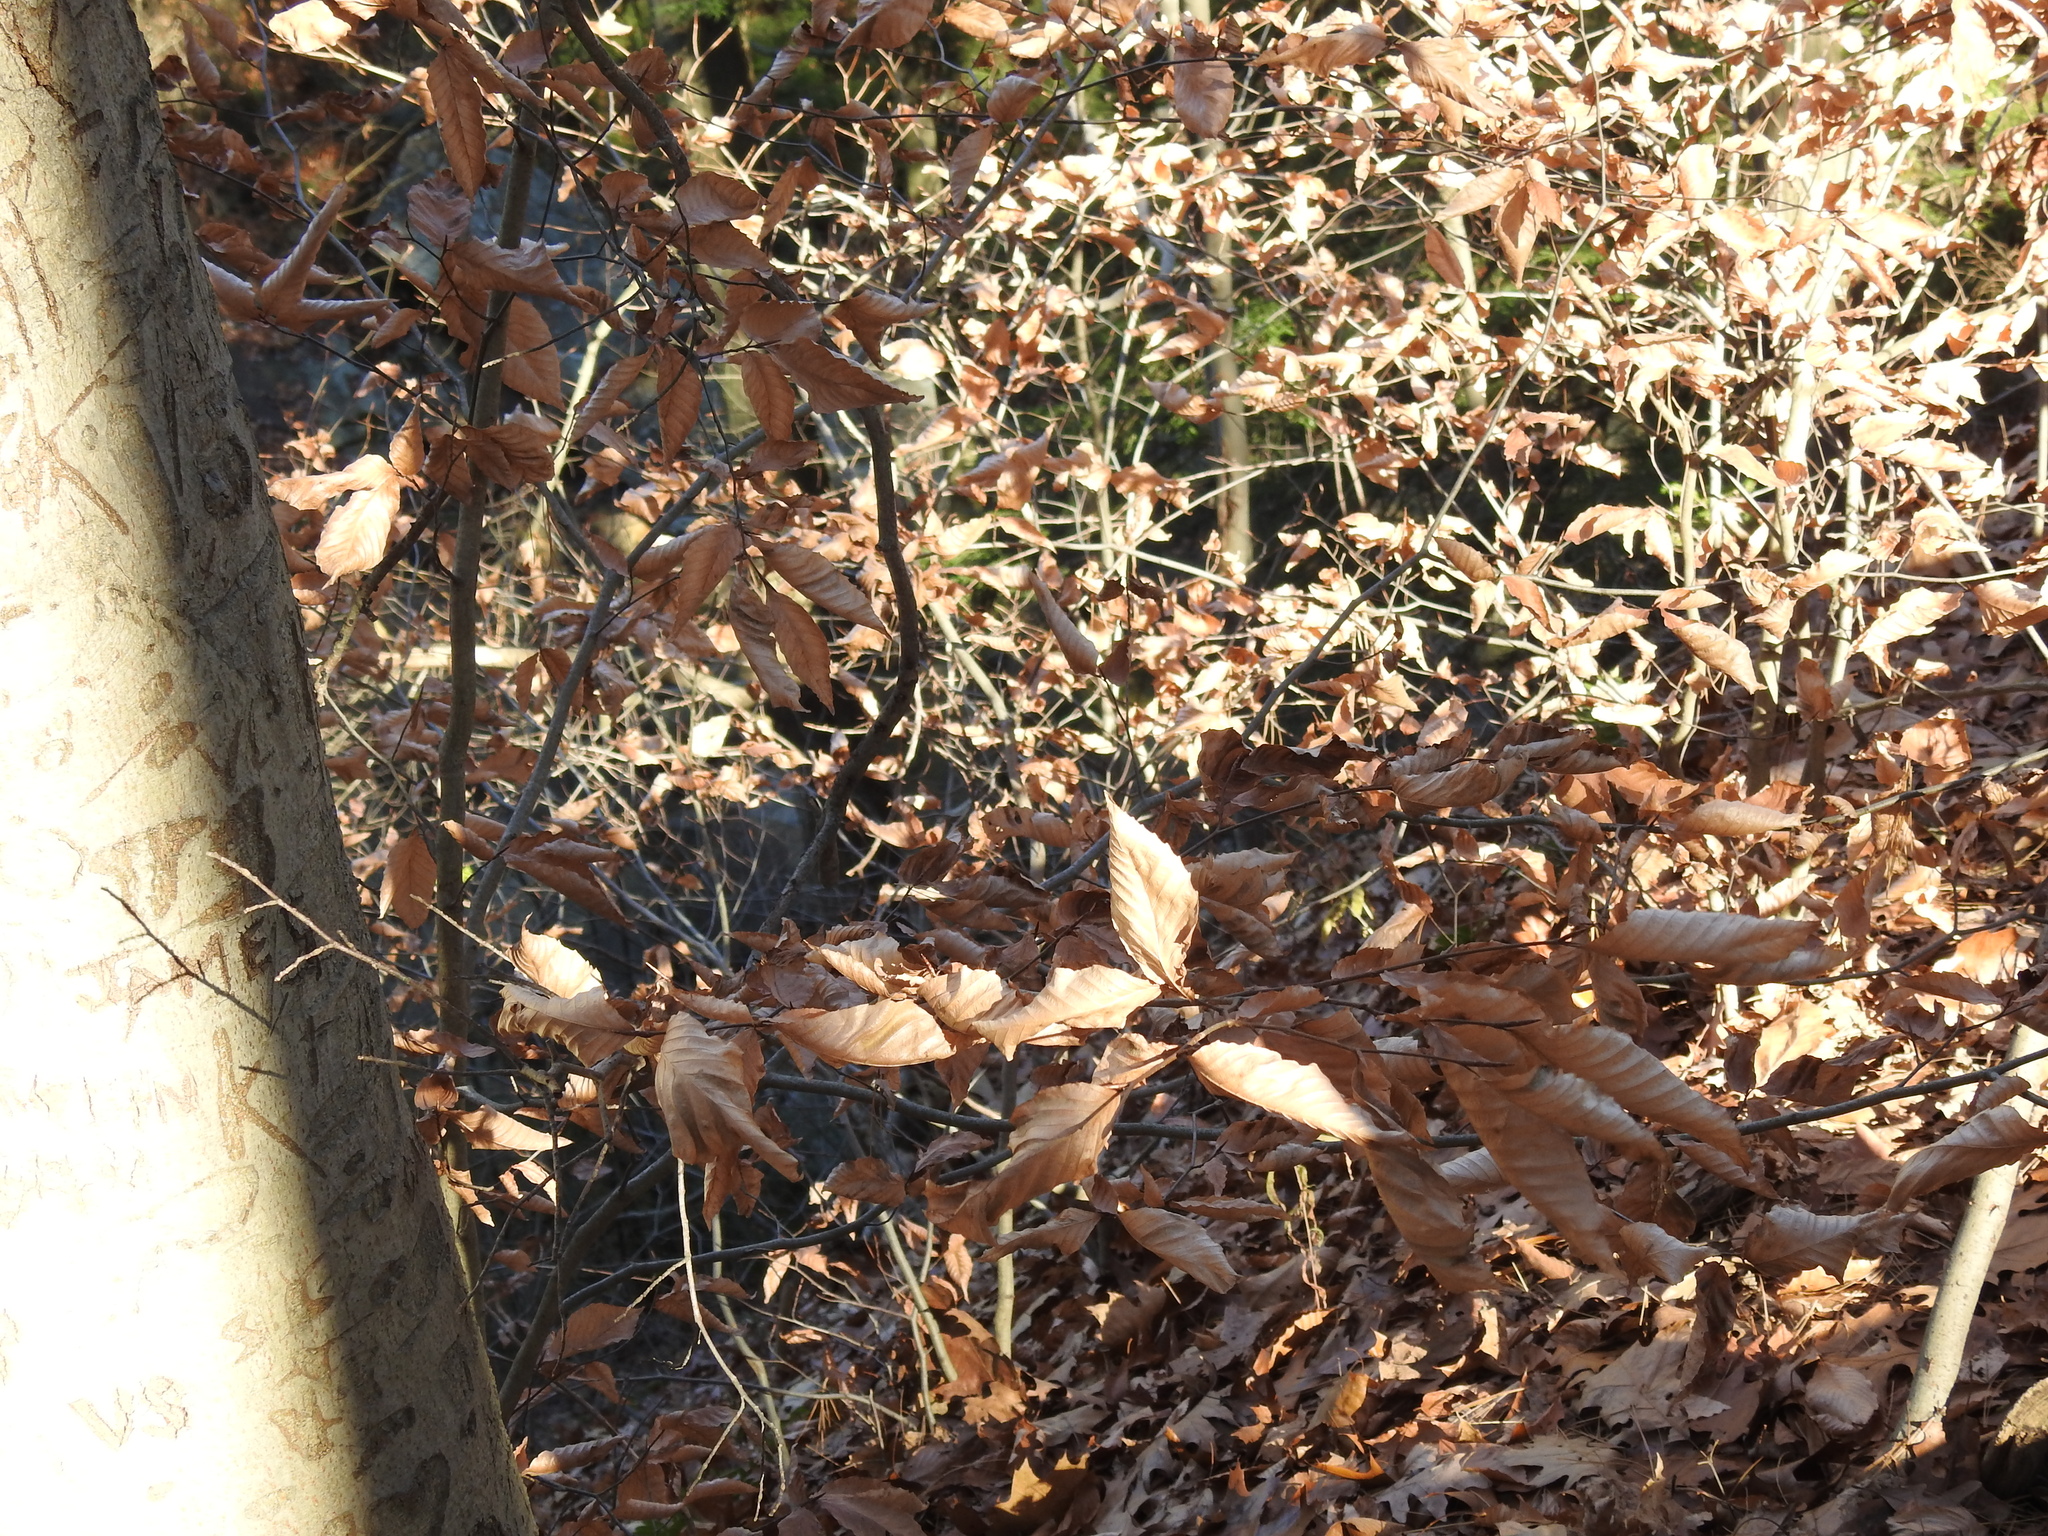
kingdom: Plantae
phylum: Tracheophyta
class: Magnoliopsida
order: Fagales
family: Fagaceae
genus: Fagus
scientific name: Fagus grandifolia
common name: American beech
